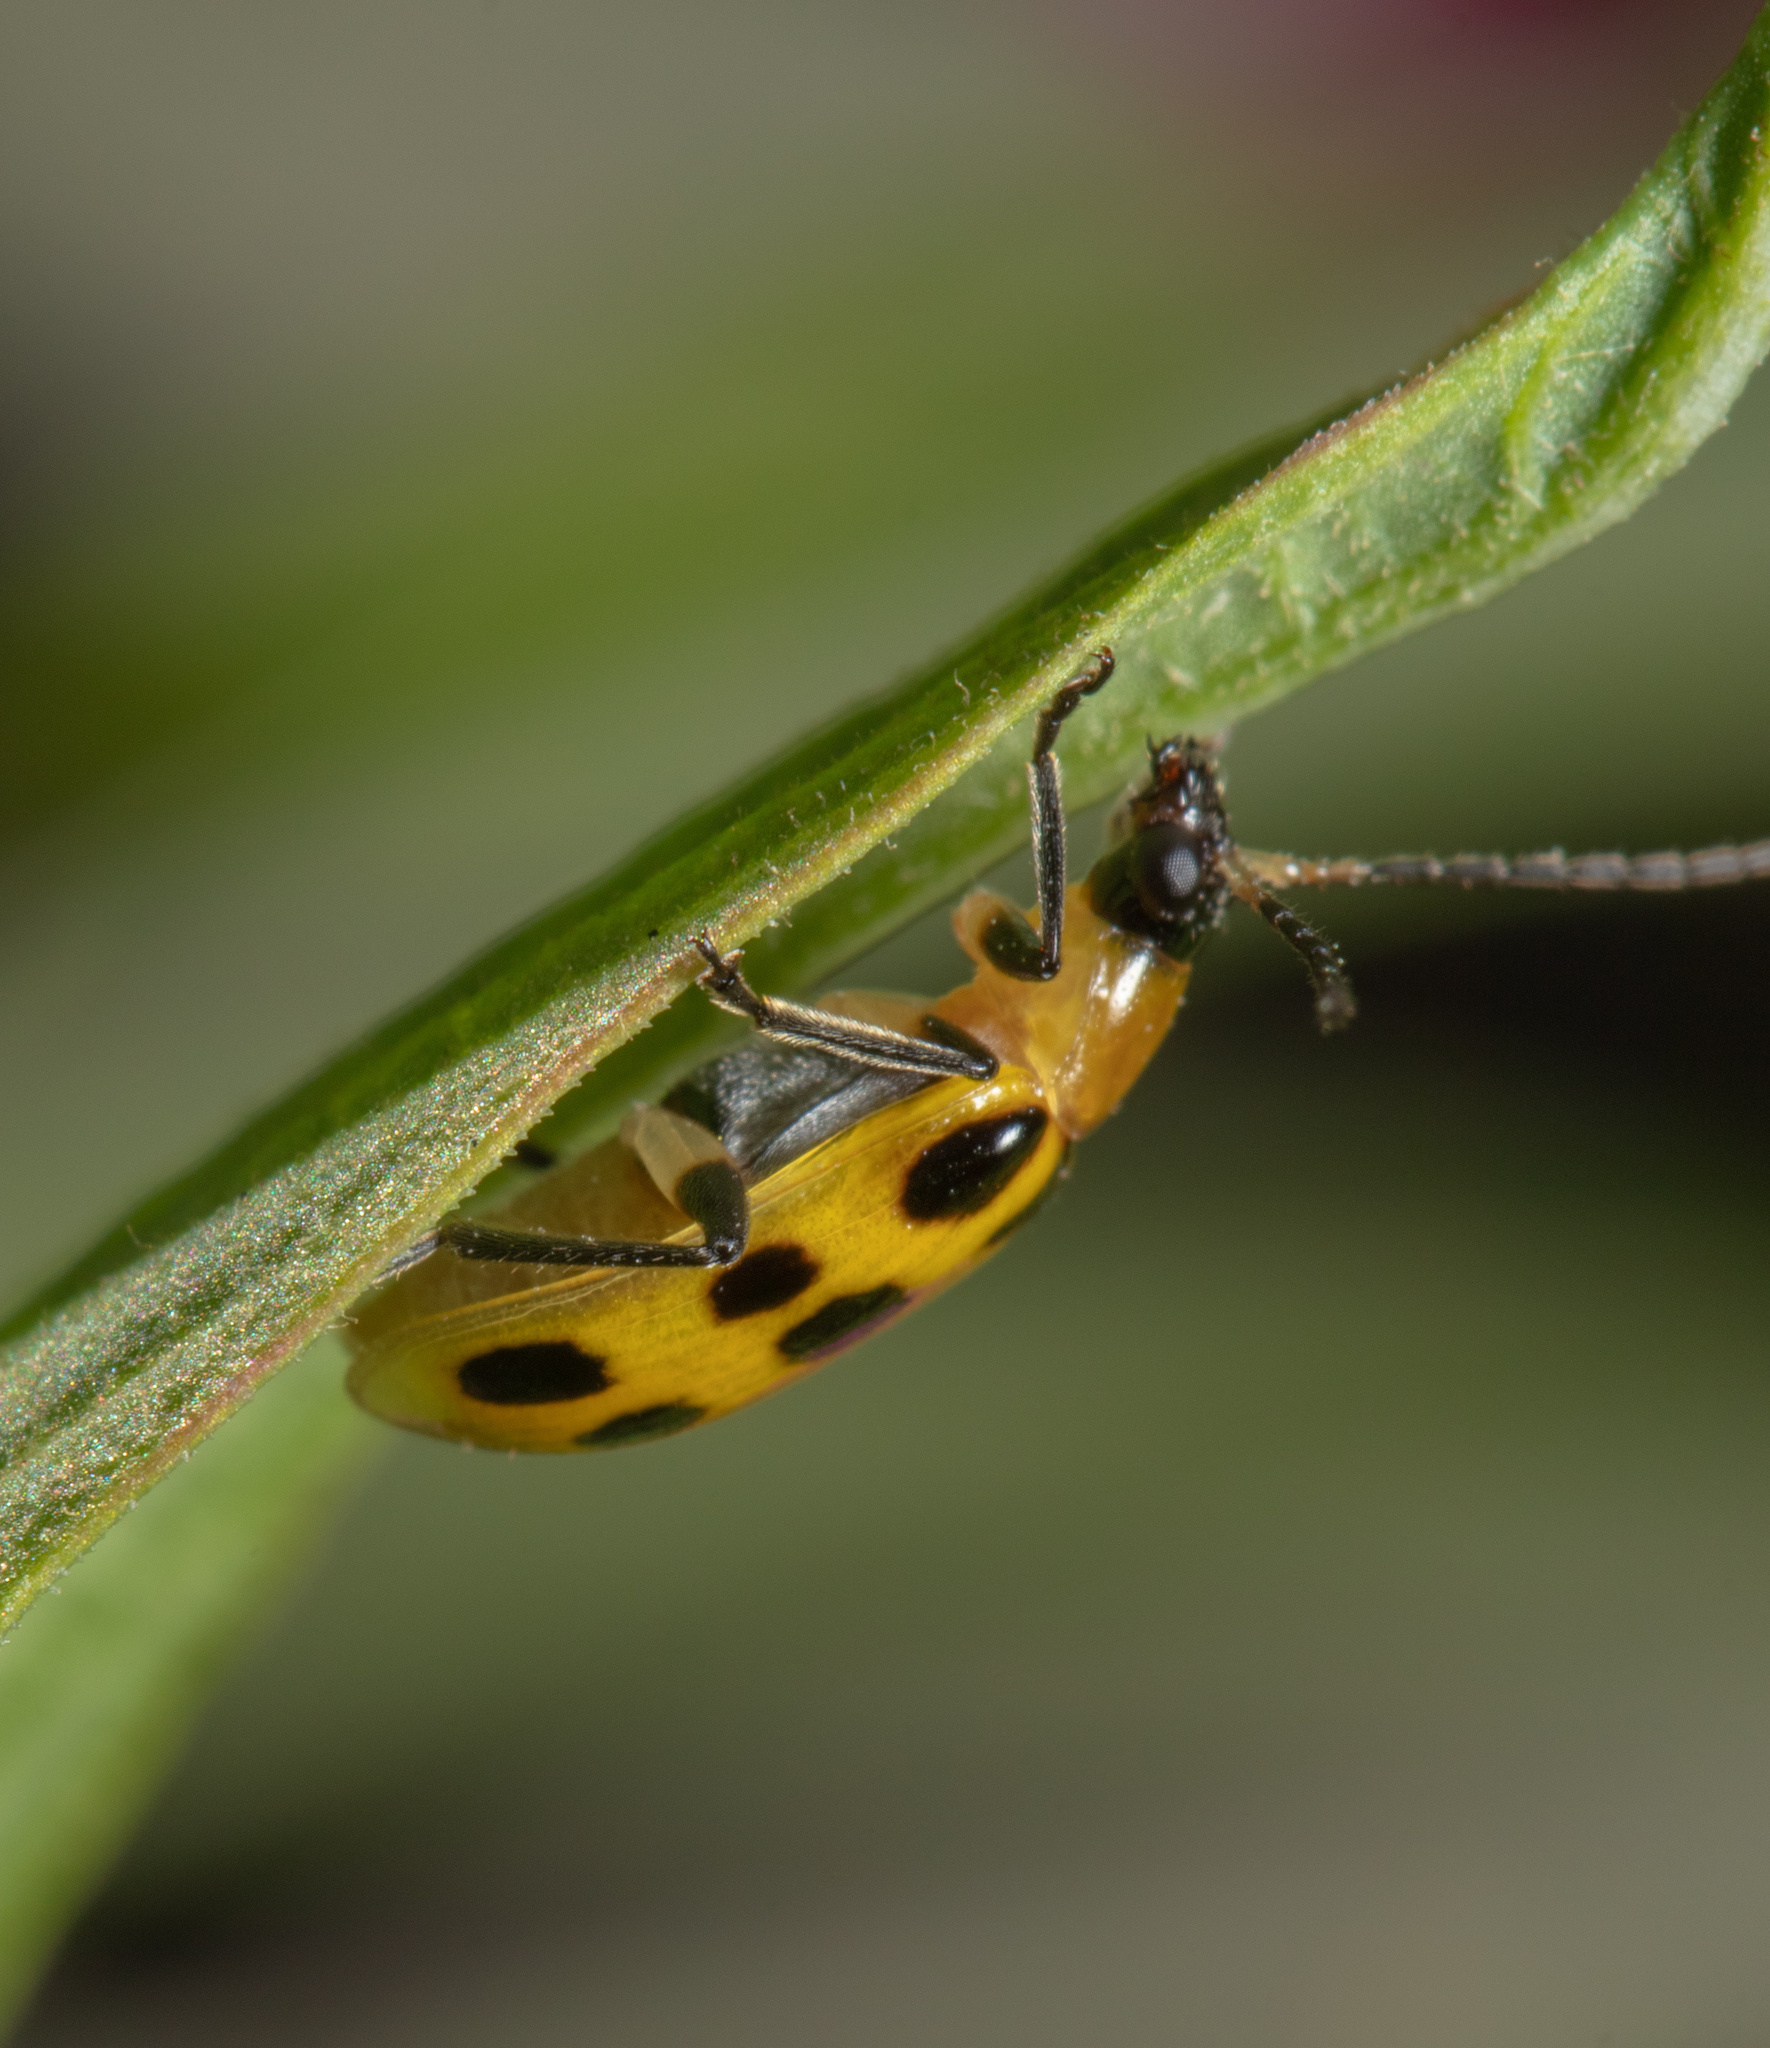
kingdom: Animalia
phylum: Arthropoda
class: Insecta
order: Coleoptera
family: Chrysomelidae
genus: Diabrotica
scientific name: Diabrotica undecimpunctata
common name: Spotted cucumber beetle
